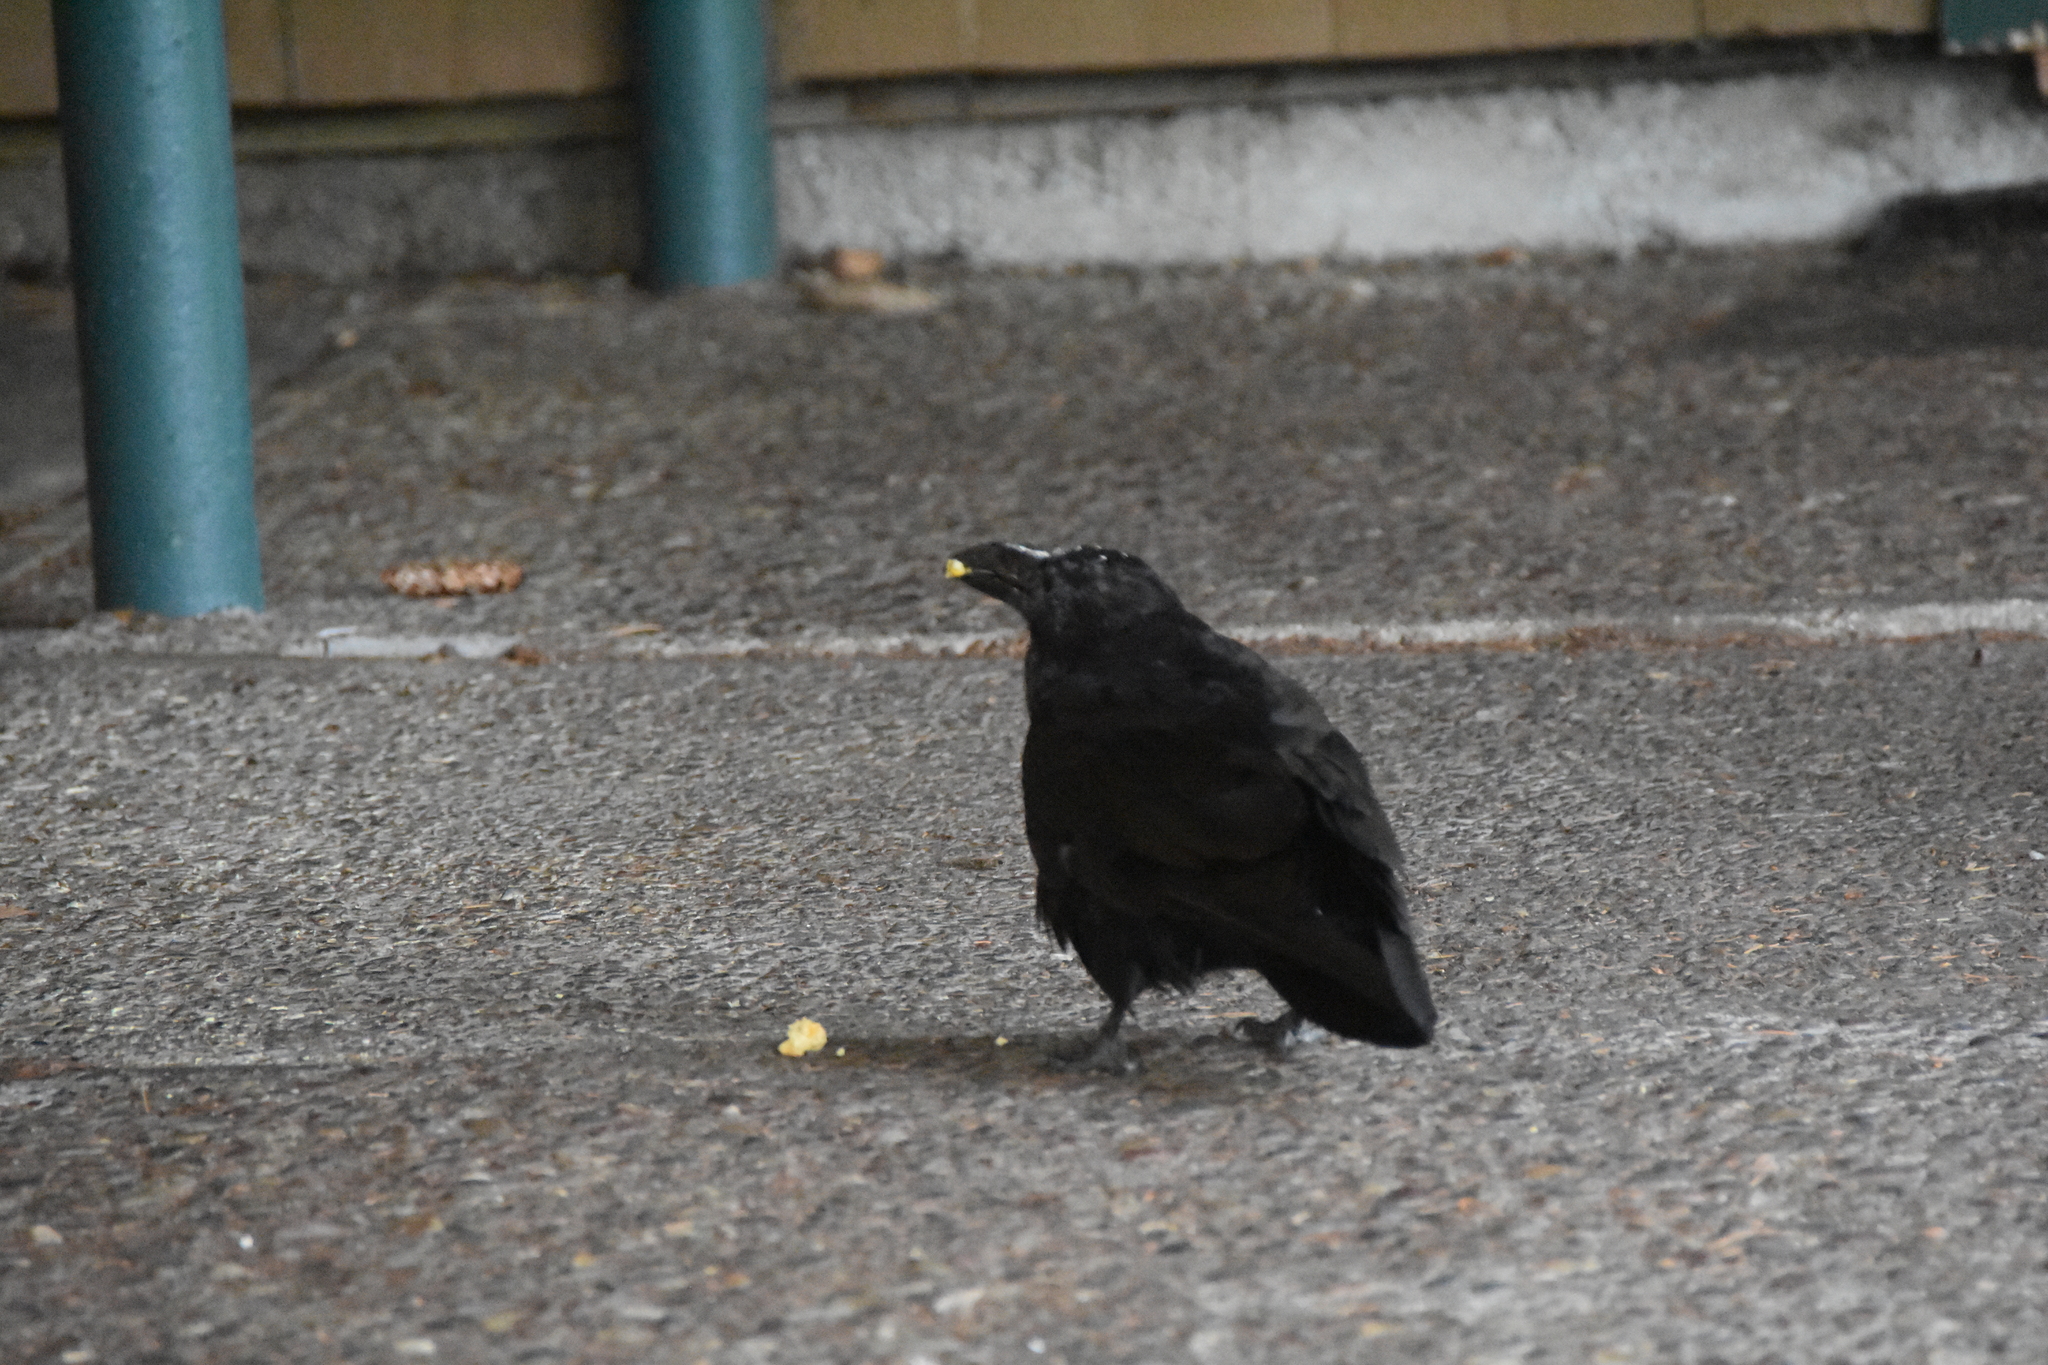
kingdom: Animalia
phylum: Chordata
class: Aves
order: Passeriformes
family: Corvidae
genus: Corvus
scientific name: Corvus corax
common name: Common raven
